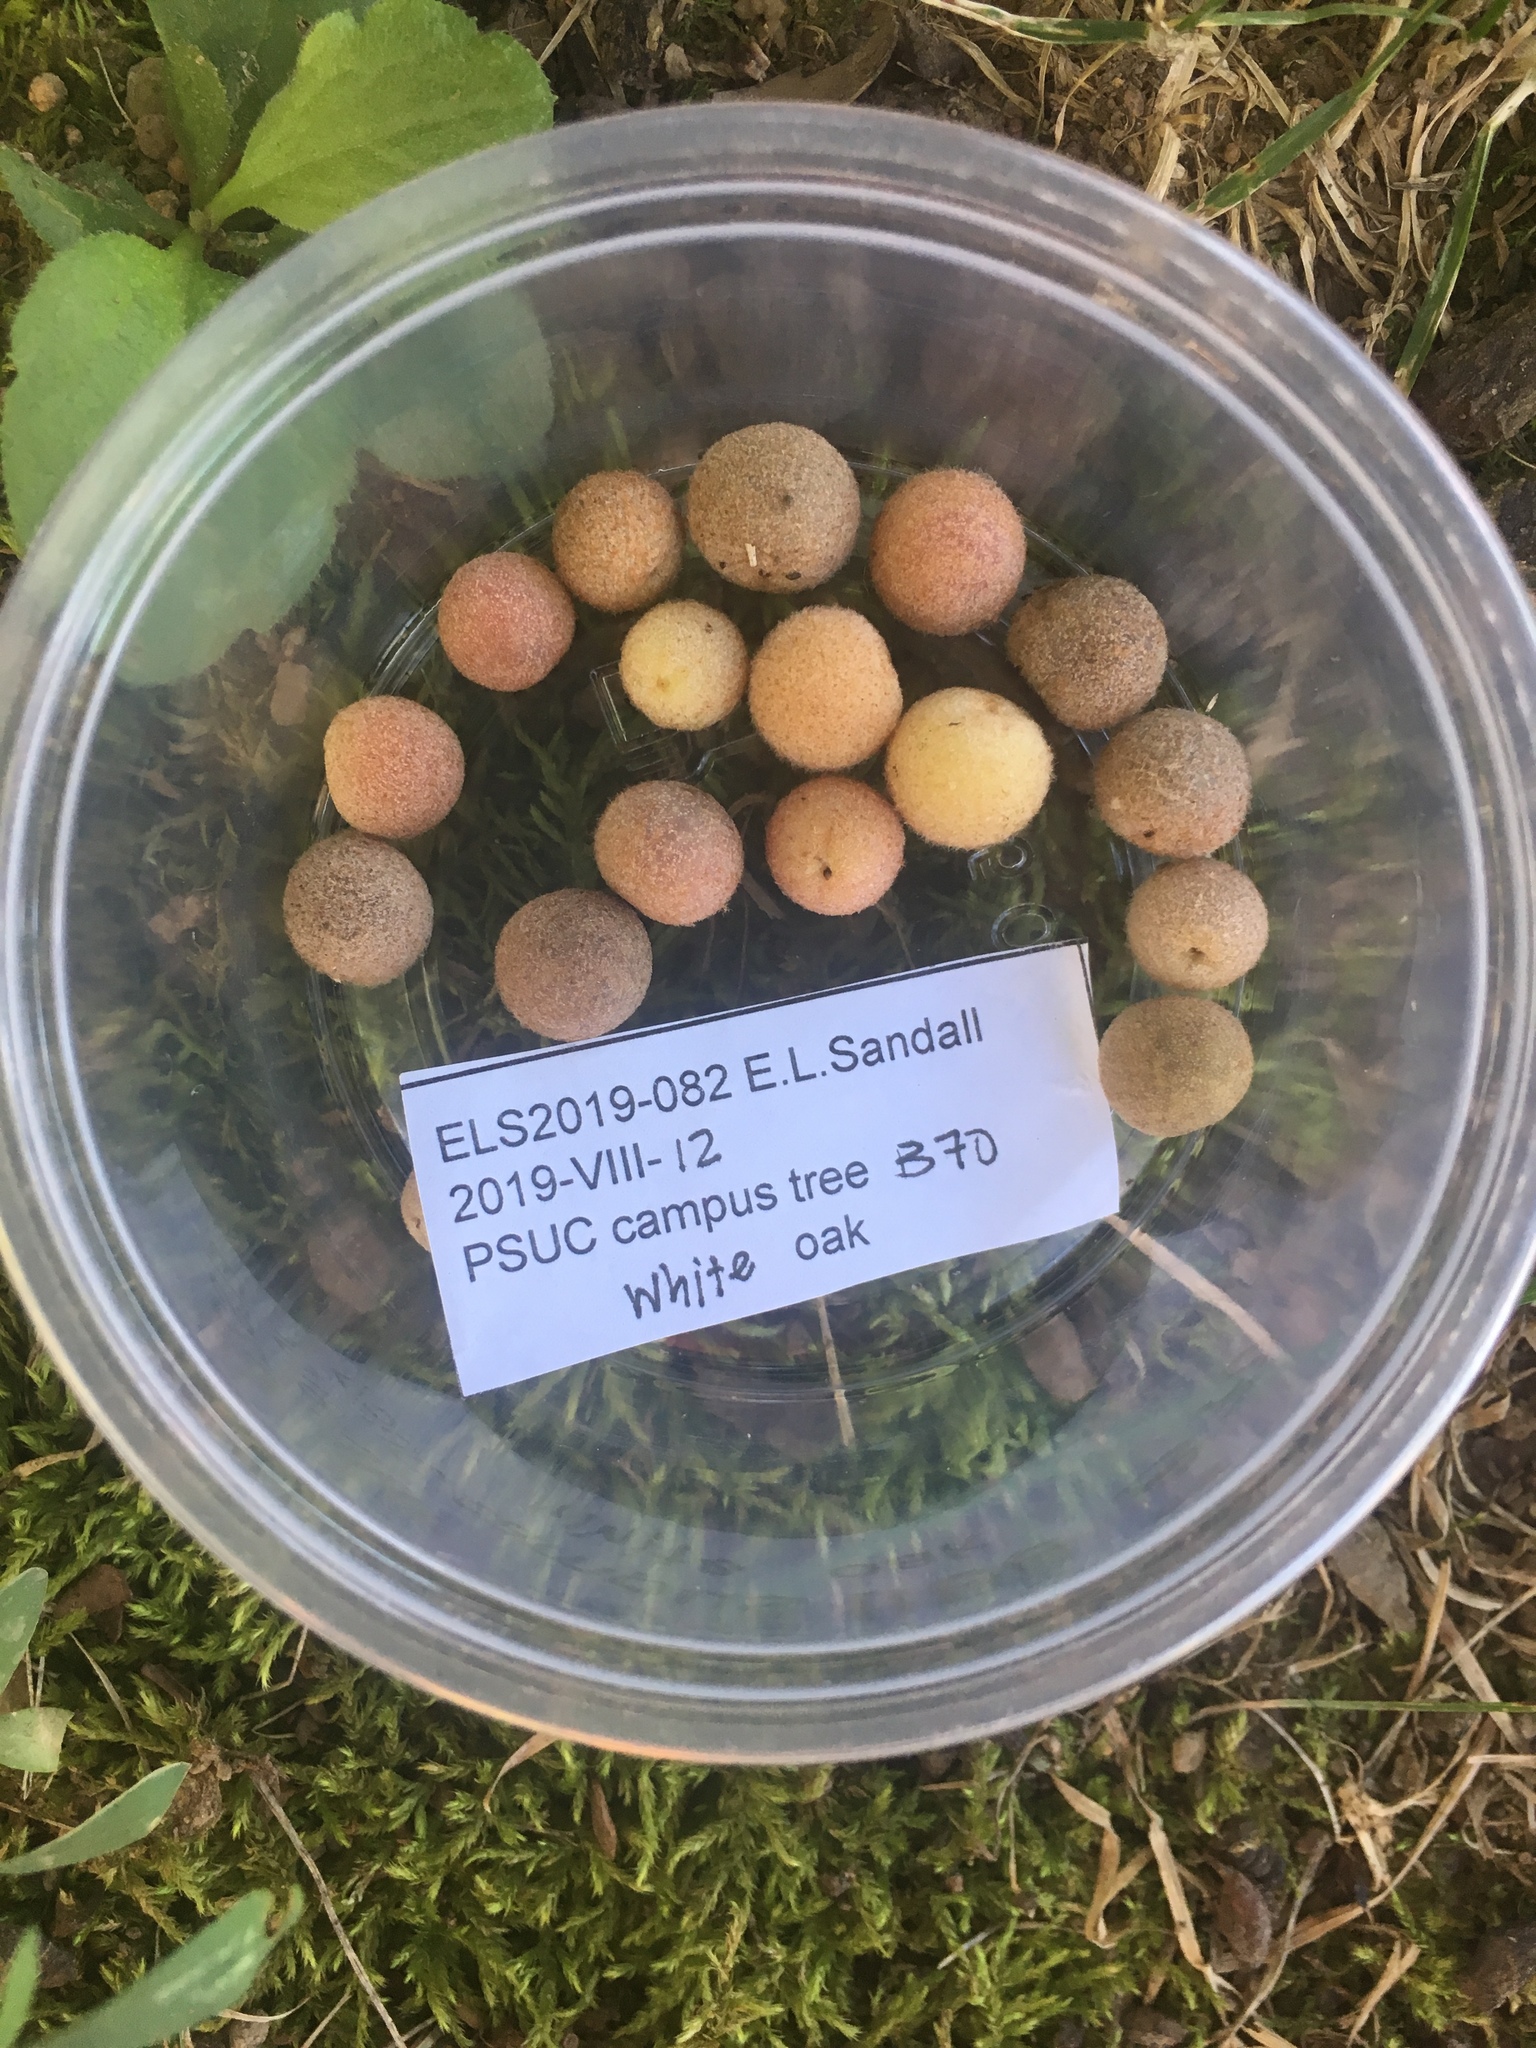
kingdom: Animalia
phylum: Arthropoda
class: Insecta
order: Hymenoptera
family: Cynipidae
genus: Philonix
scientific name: Philonix fulvicollis
